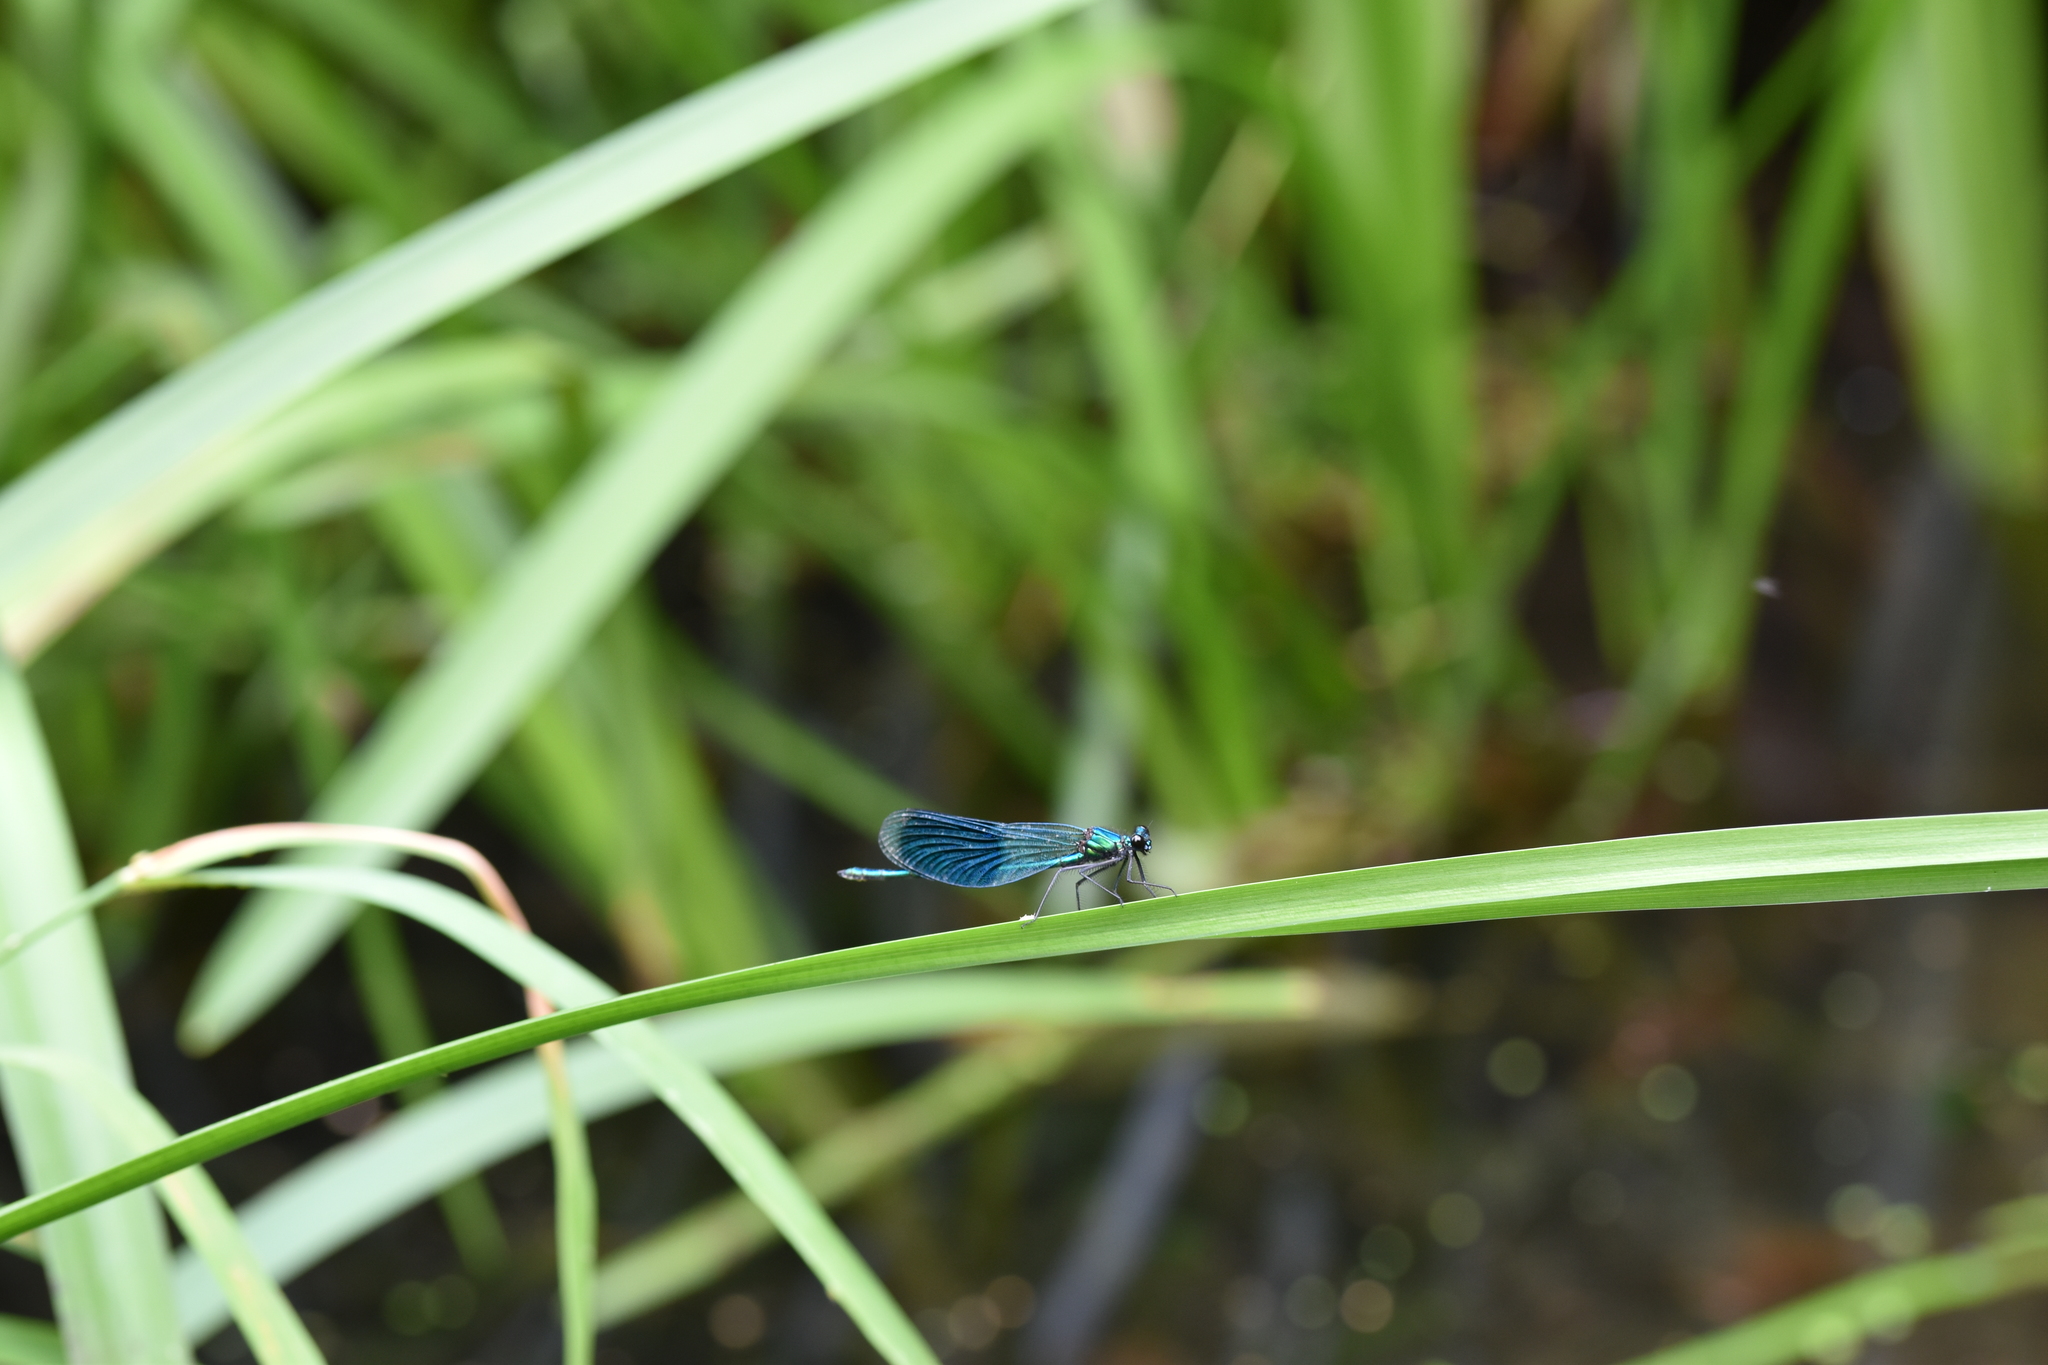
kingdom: Animalia
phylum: Arthropoda
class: Insecta
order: Odonata
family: Calopterygidae
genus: Calopteryx
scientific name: Calopteryx splendens
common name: Banded demoiselle
